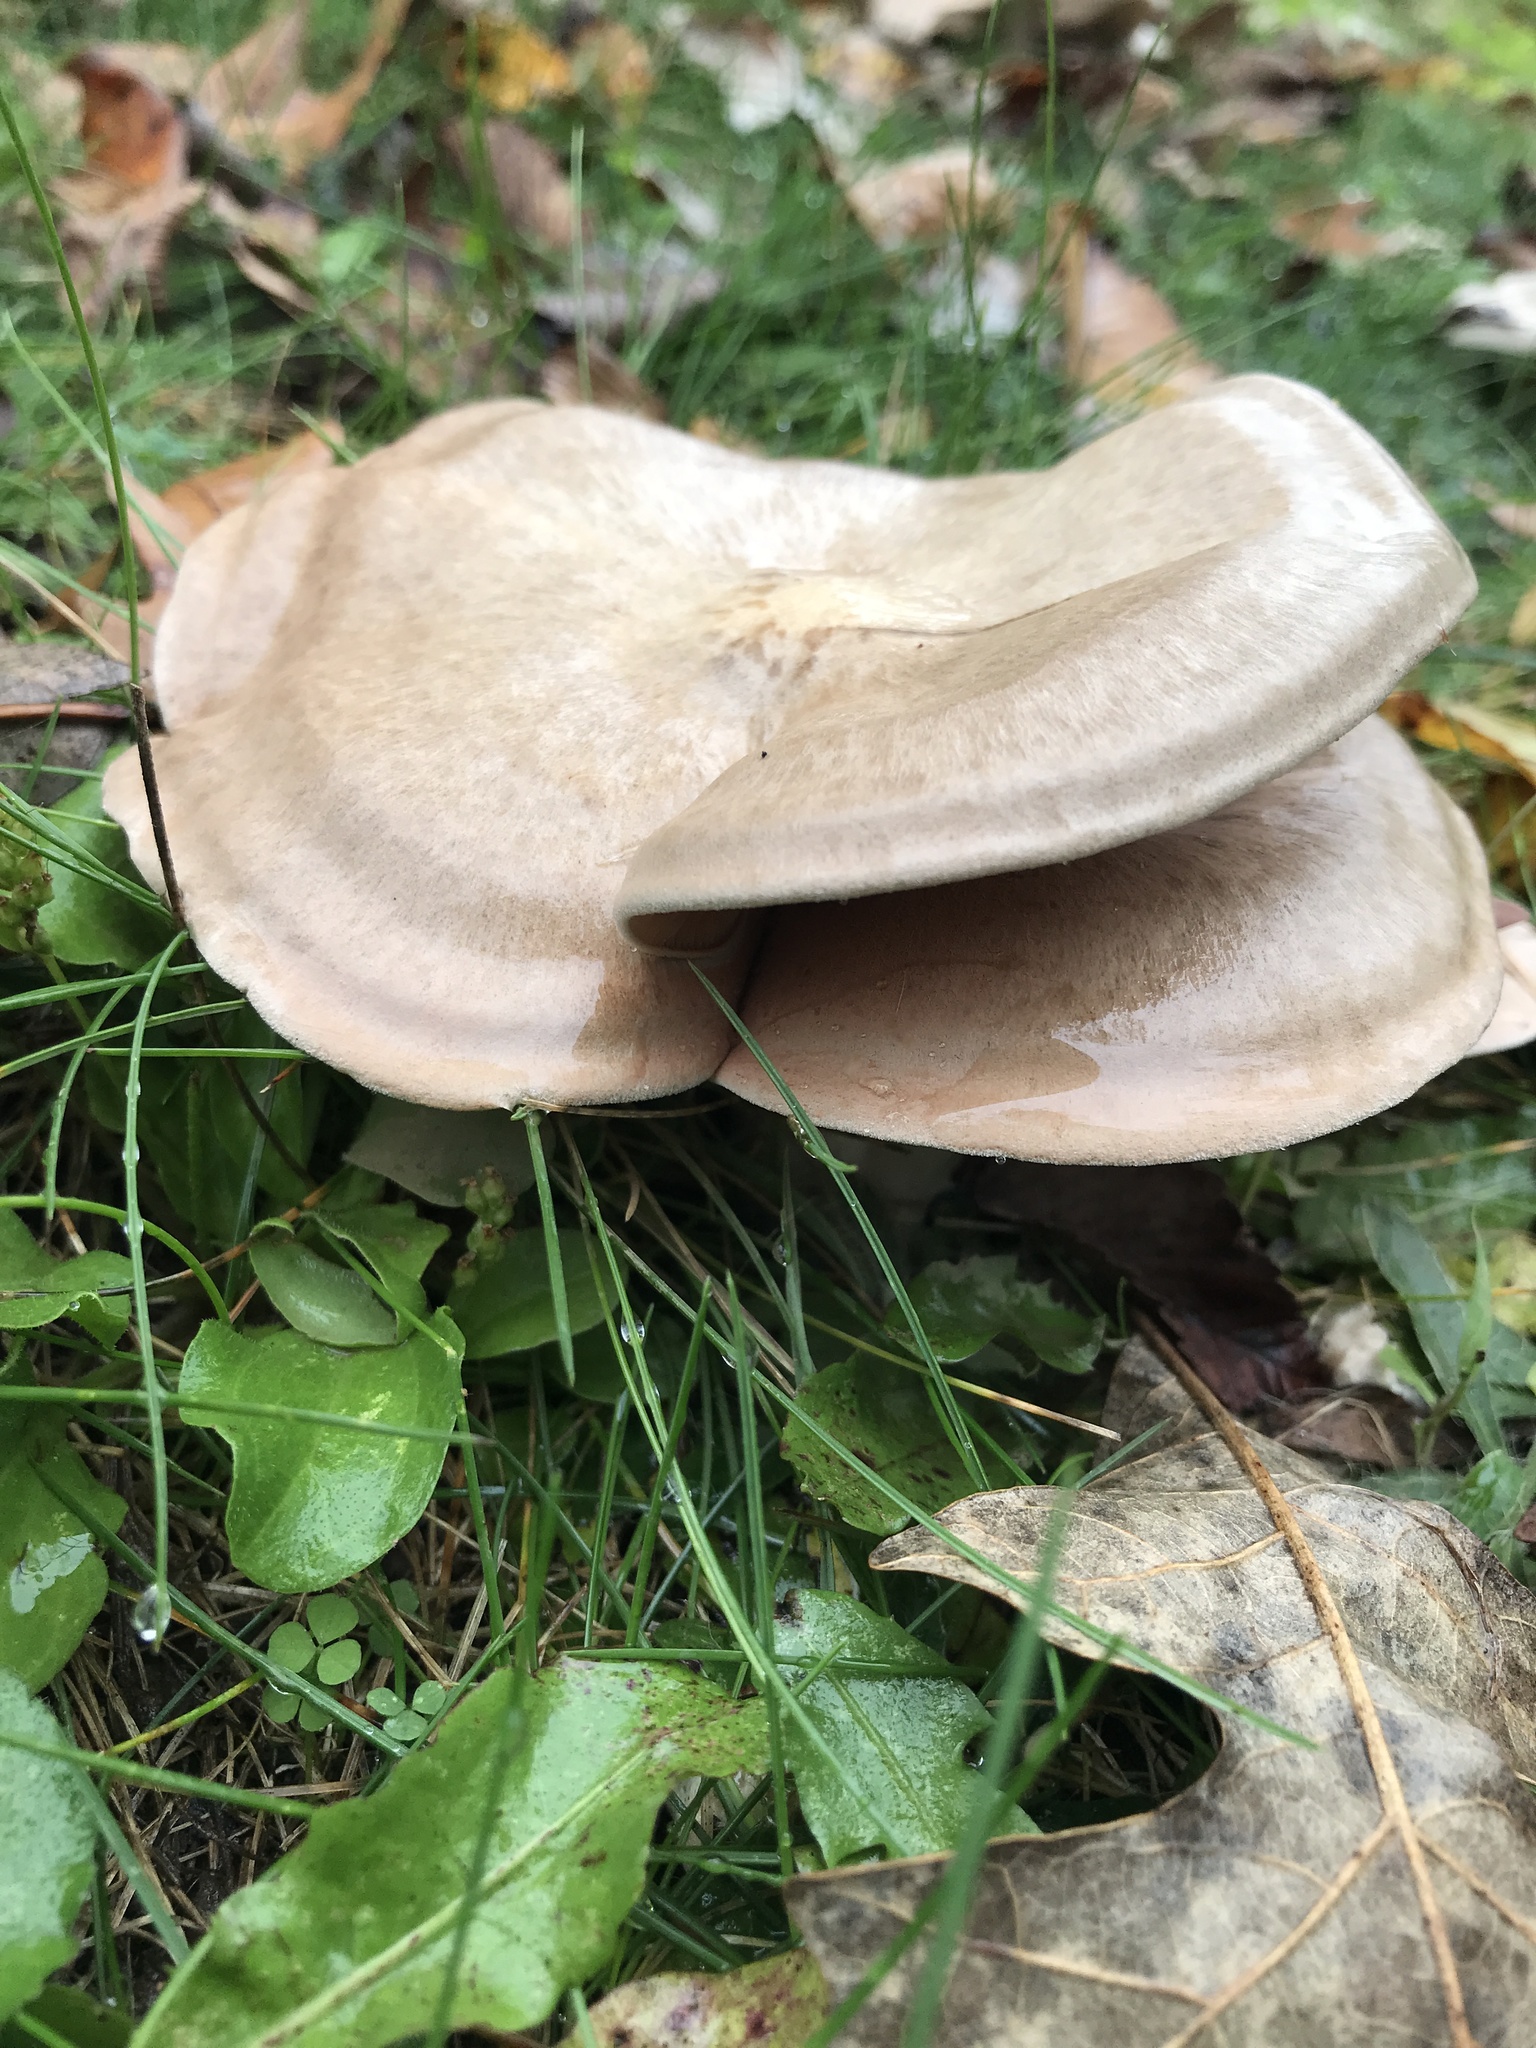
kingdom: Fungi
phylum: Basidiomycota
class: Agaricomycetes
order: Agaricales
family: Entolomataceae
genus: Entoloma
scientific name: Entoloma abortivum
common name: Aborted entoloma
